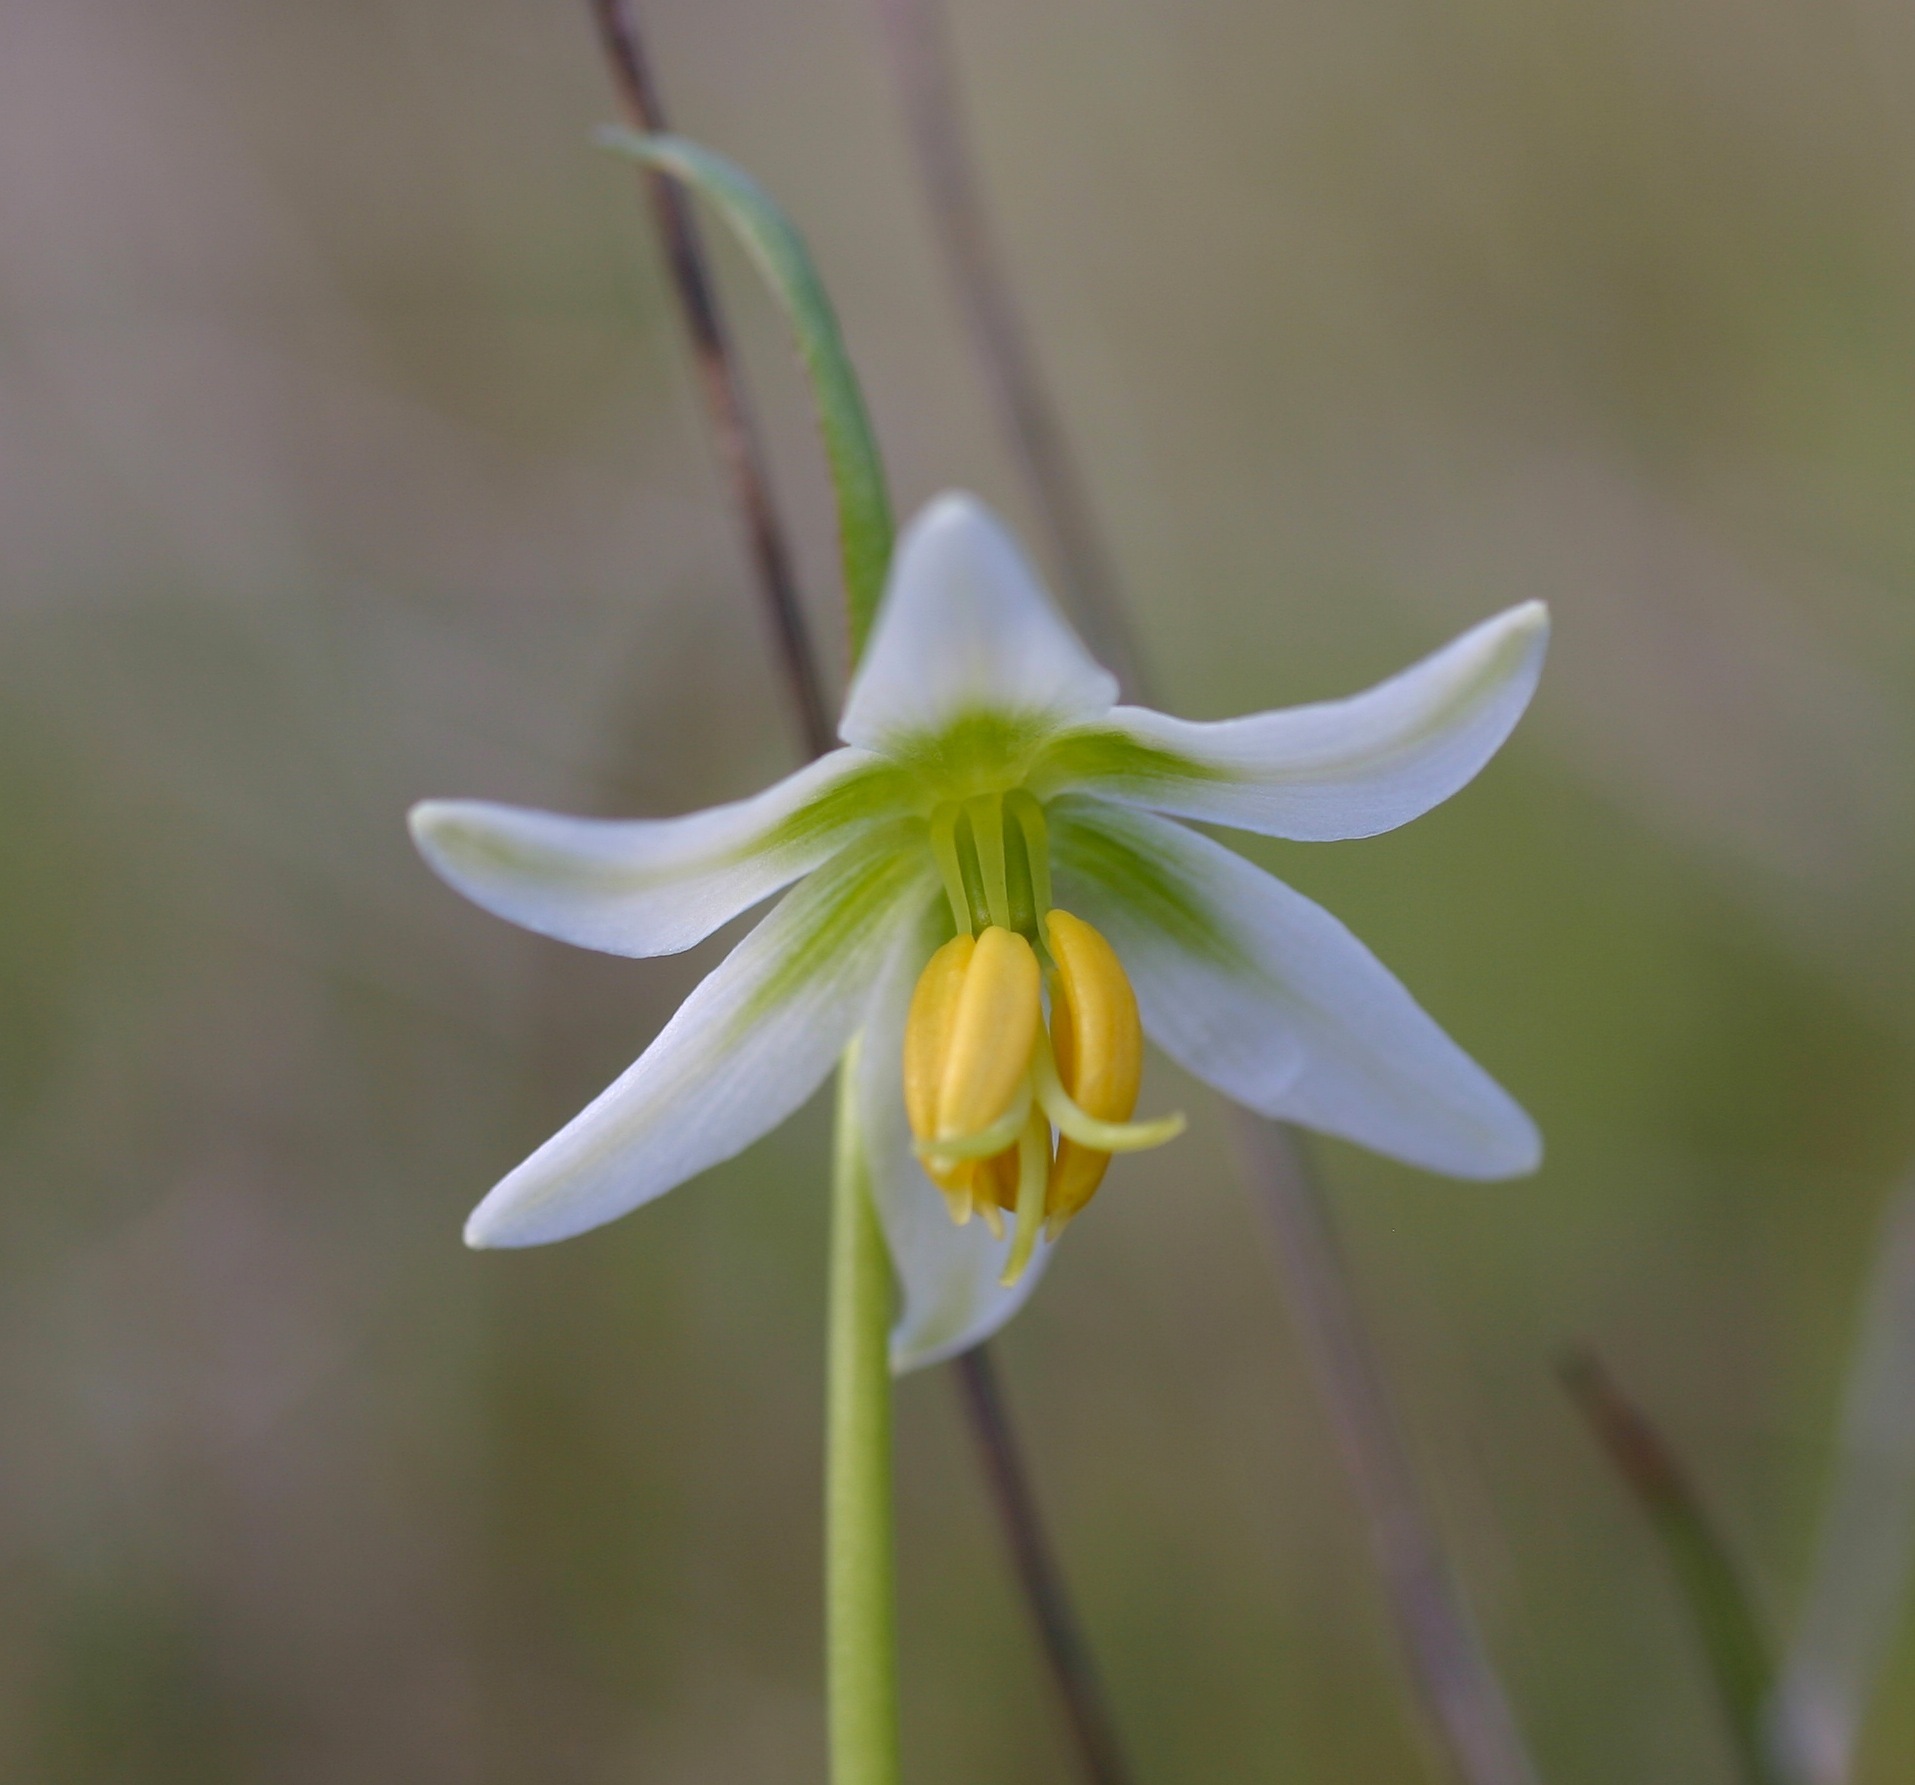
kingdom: Plantae
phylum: Tracheophyta
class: Liliopsida
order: Liliales
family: Liliaceae
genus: Fritillaria
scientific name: Fritillaria liliacea
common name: Fragrant fritillary
